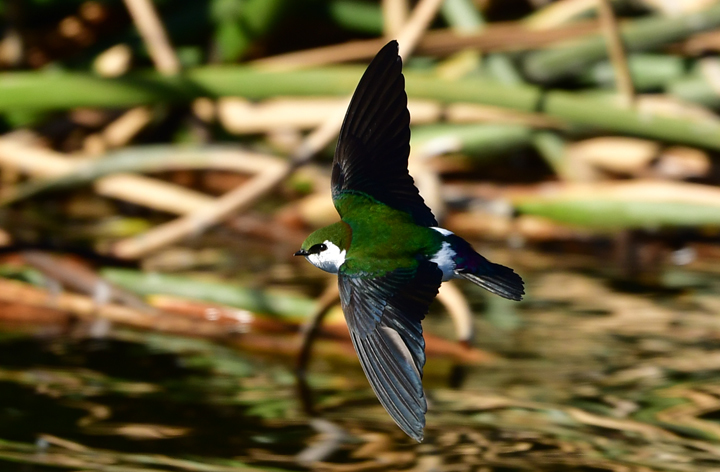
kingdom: Animalia
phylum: Chordata
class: Aves
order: Passeriformes
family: Hirundinidae
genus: Tachycineta
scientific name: Tachycineta thalassina
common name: Violet-green swallow
